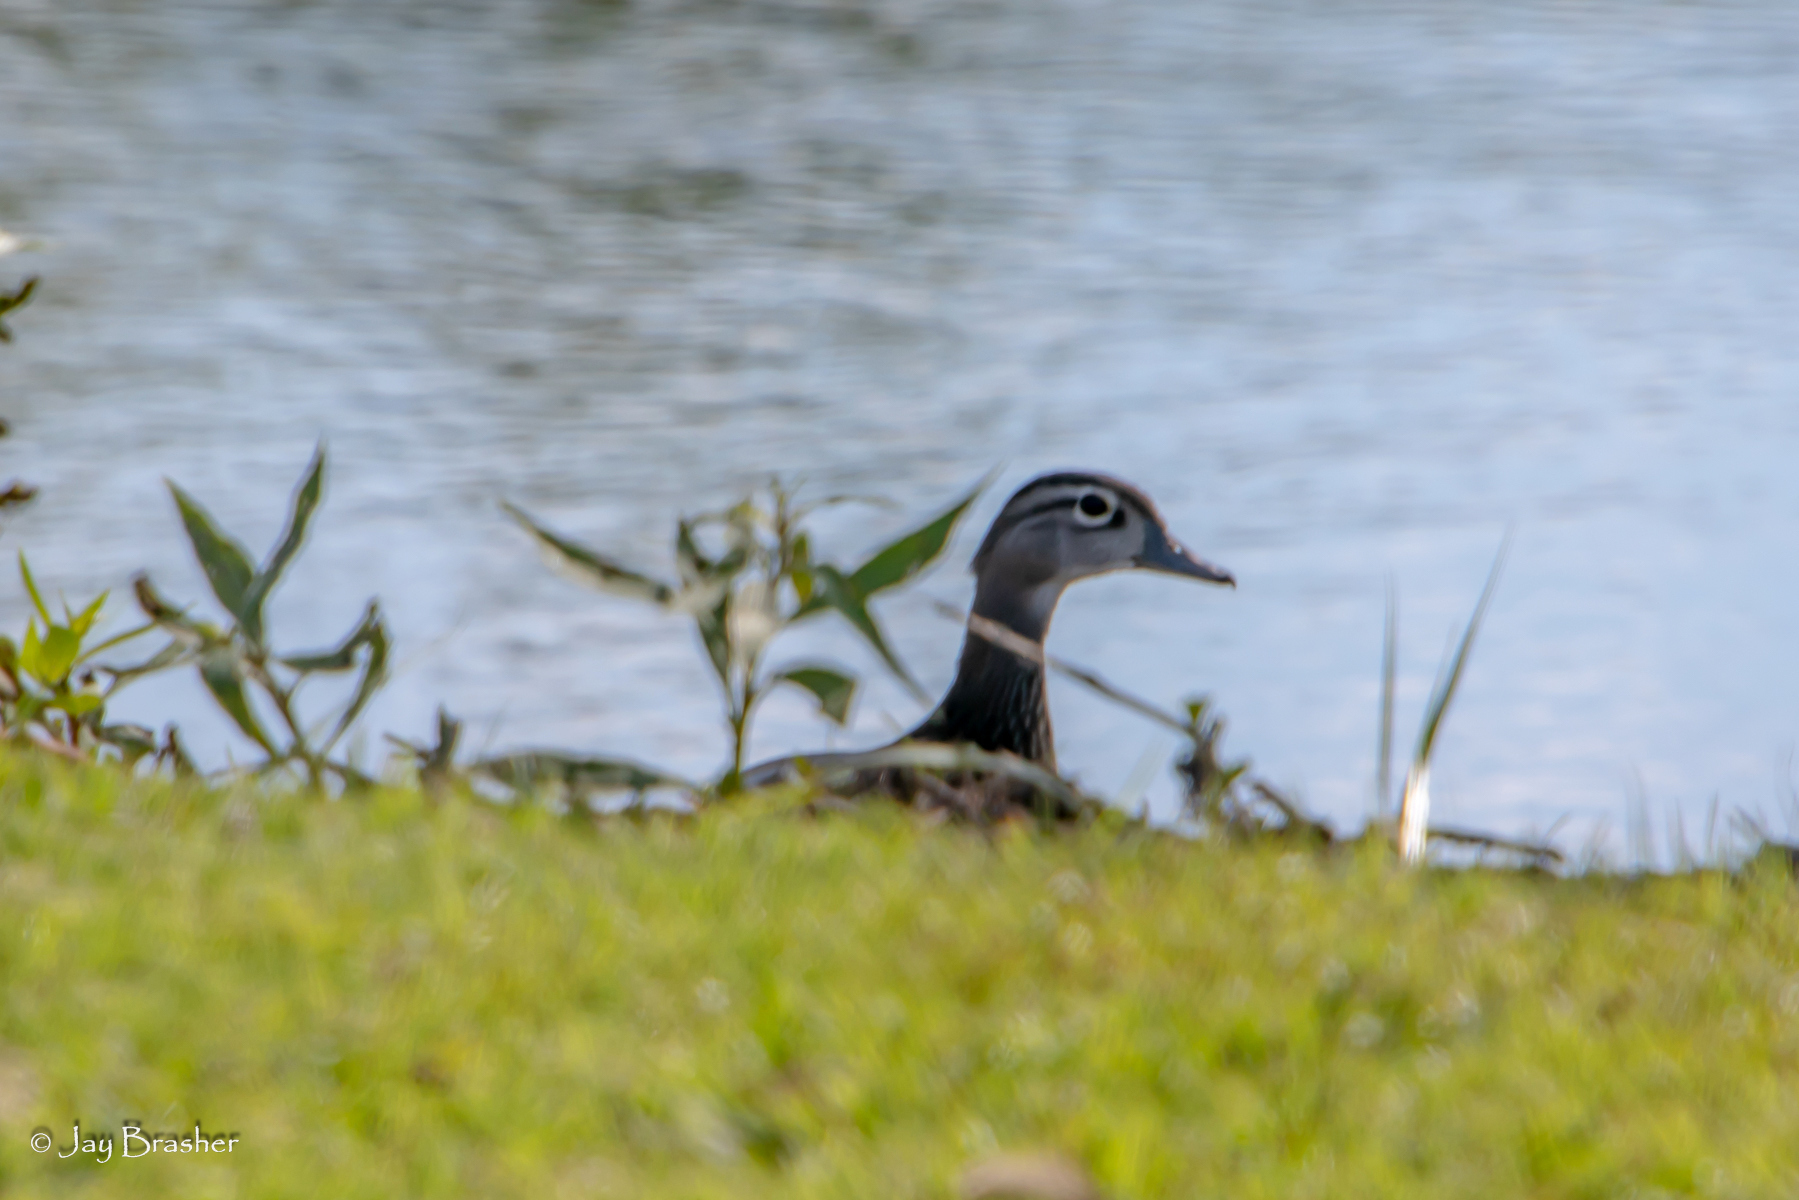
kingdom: Animalia
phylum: Chordata
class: Aves
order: Anseriformes
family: Anatidae
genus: Aix
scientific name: Aix sponsa
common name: Wood duck
